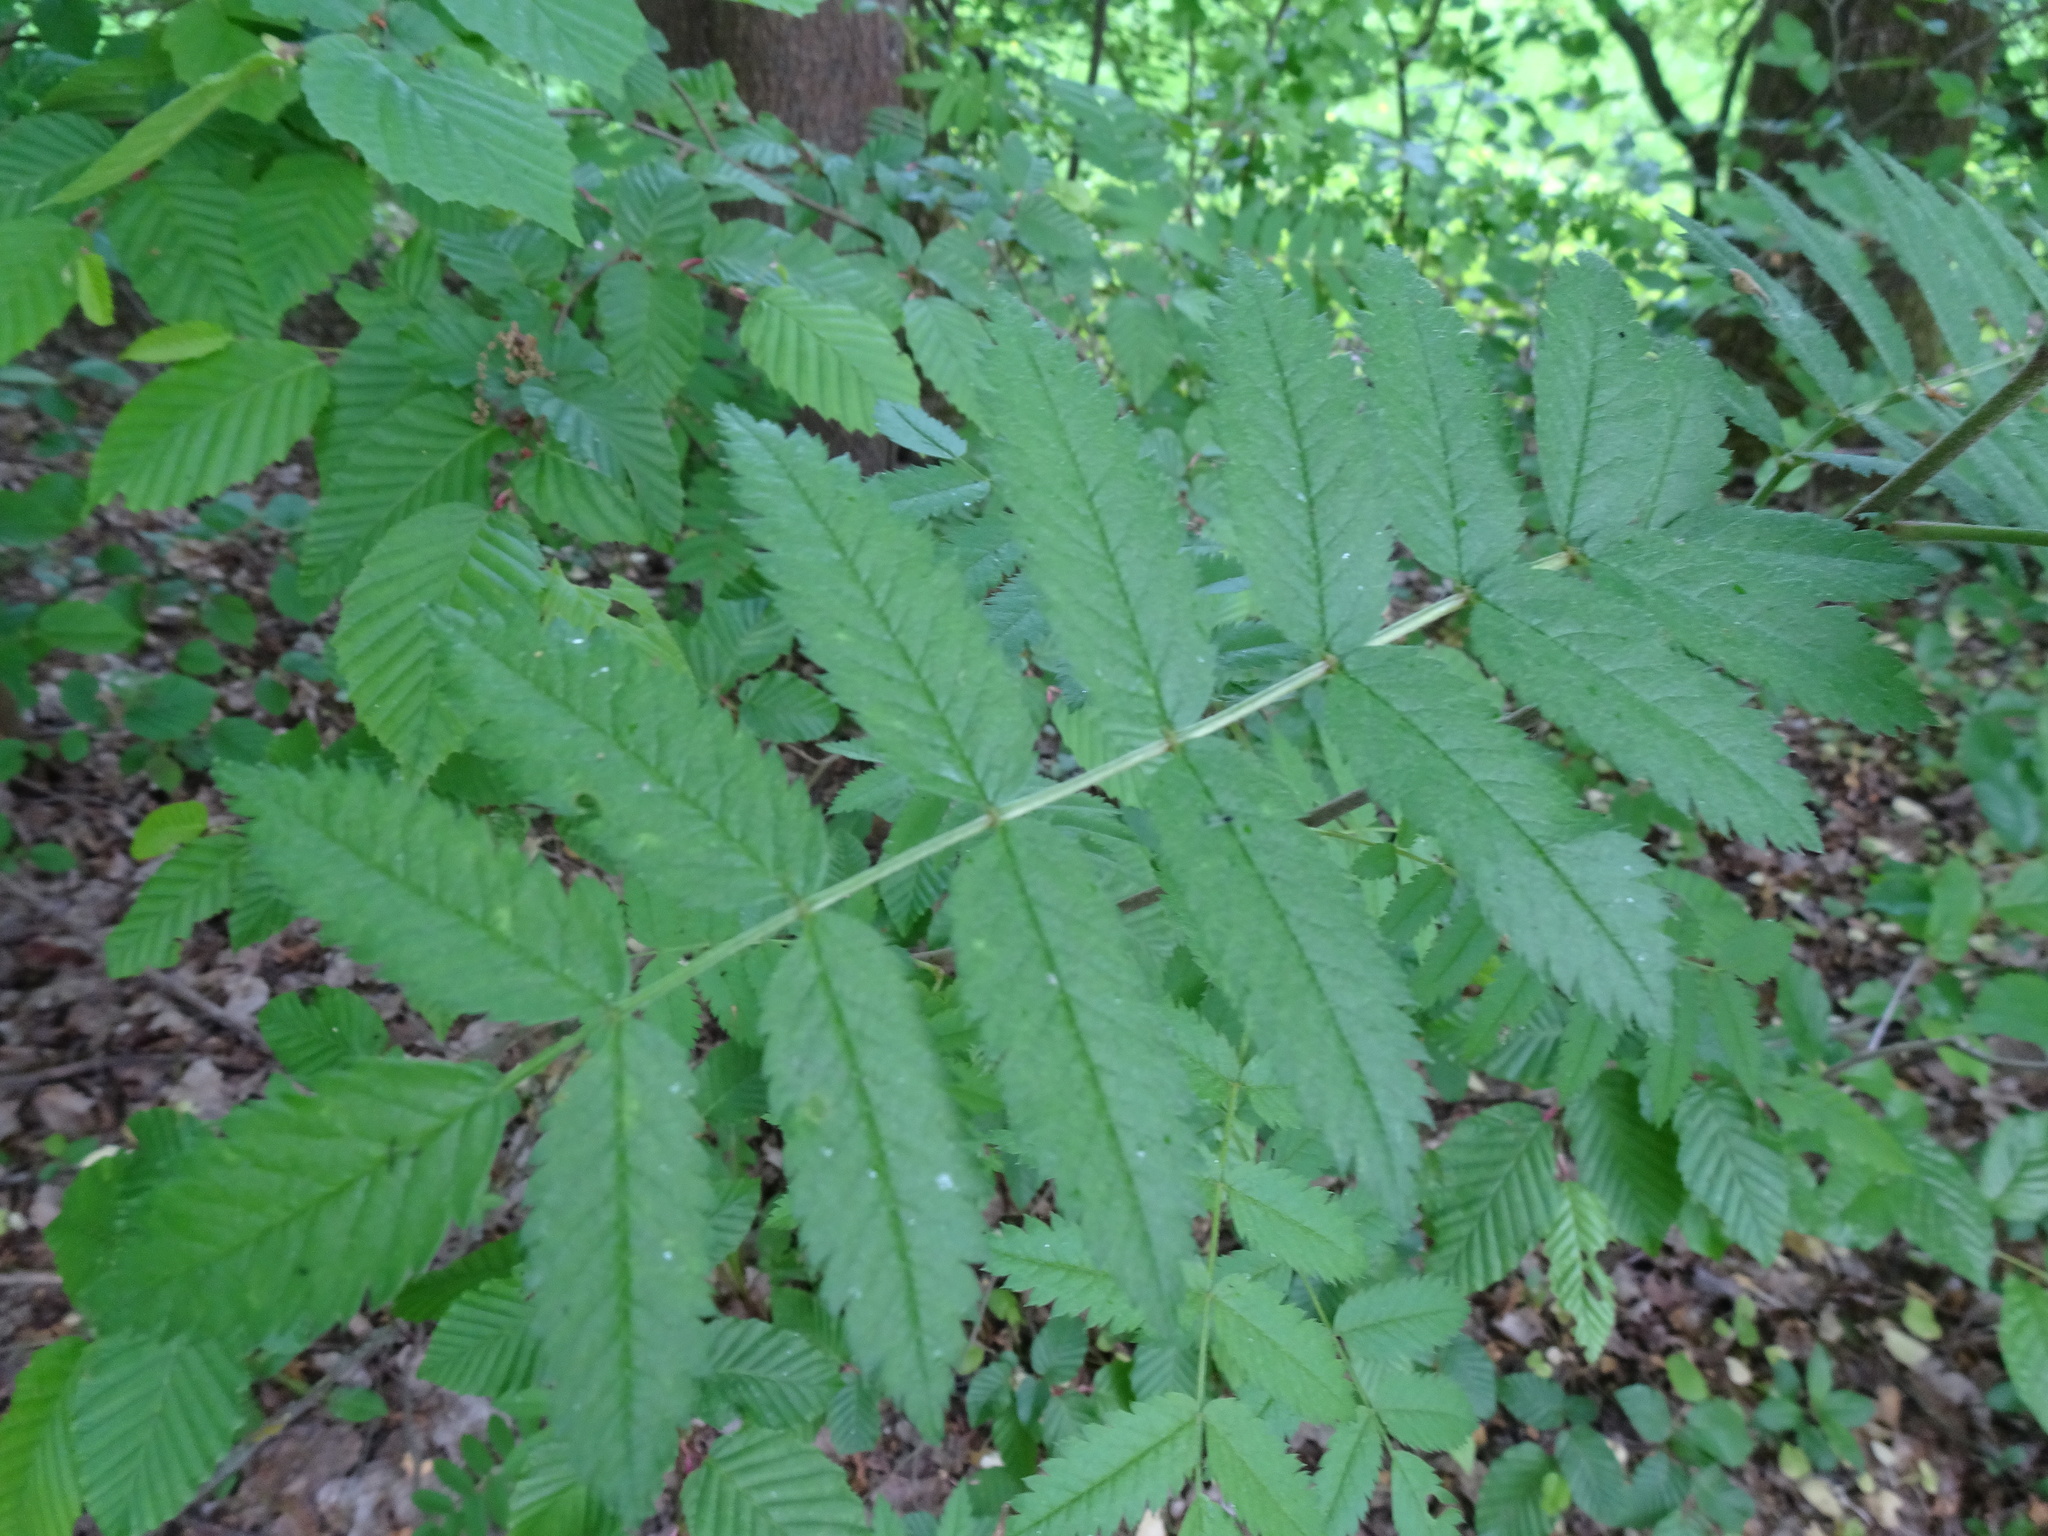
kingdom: Plantae
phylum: Tracheophyta
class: Magnoliopsida
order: Rosales
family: Rosaceae
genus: Sorbus
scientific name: Sorbus aucuparia
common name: Rowan
